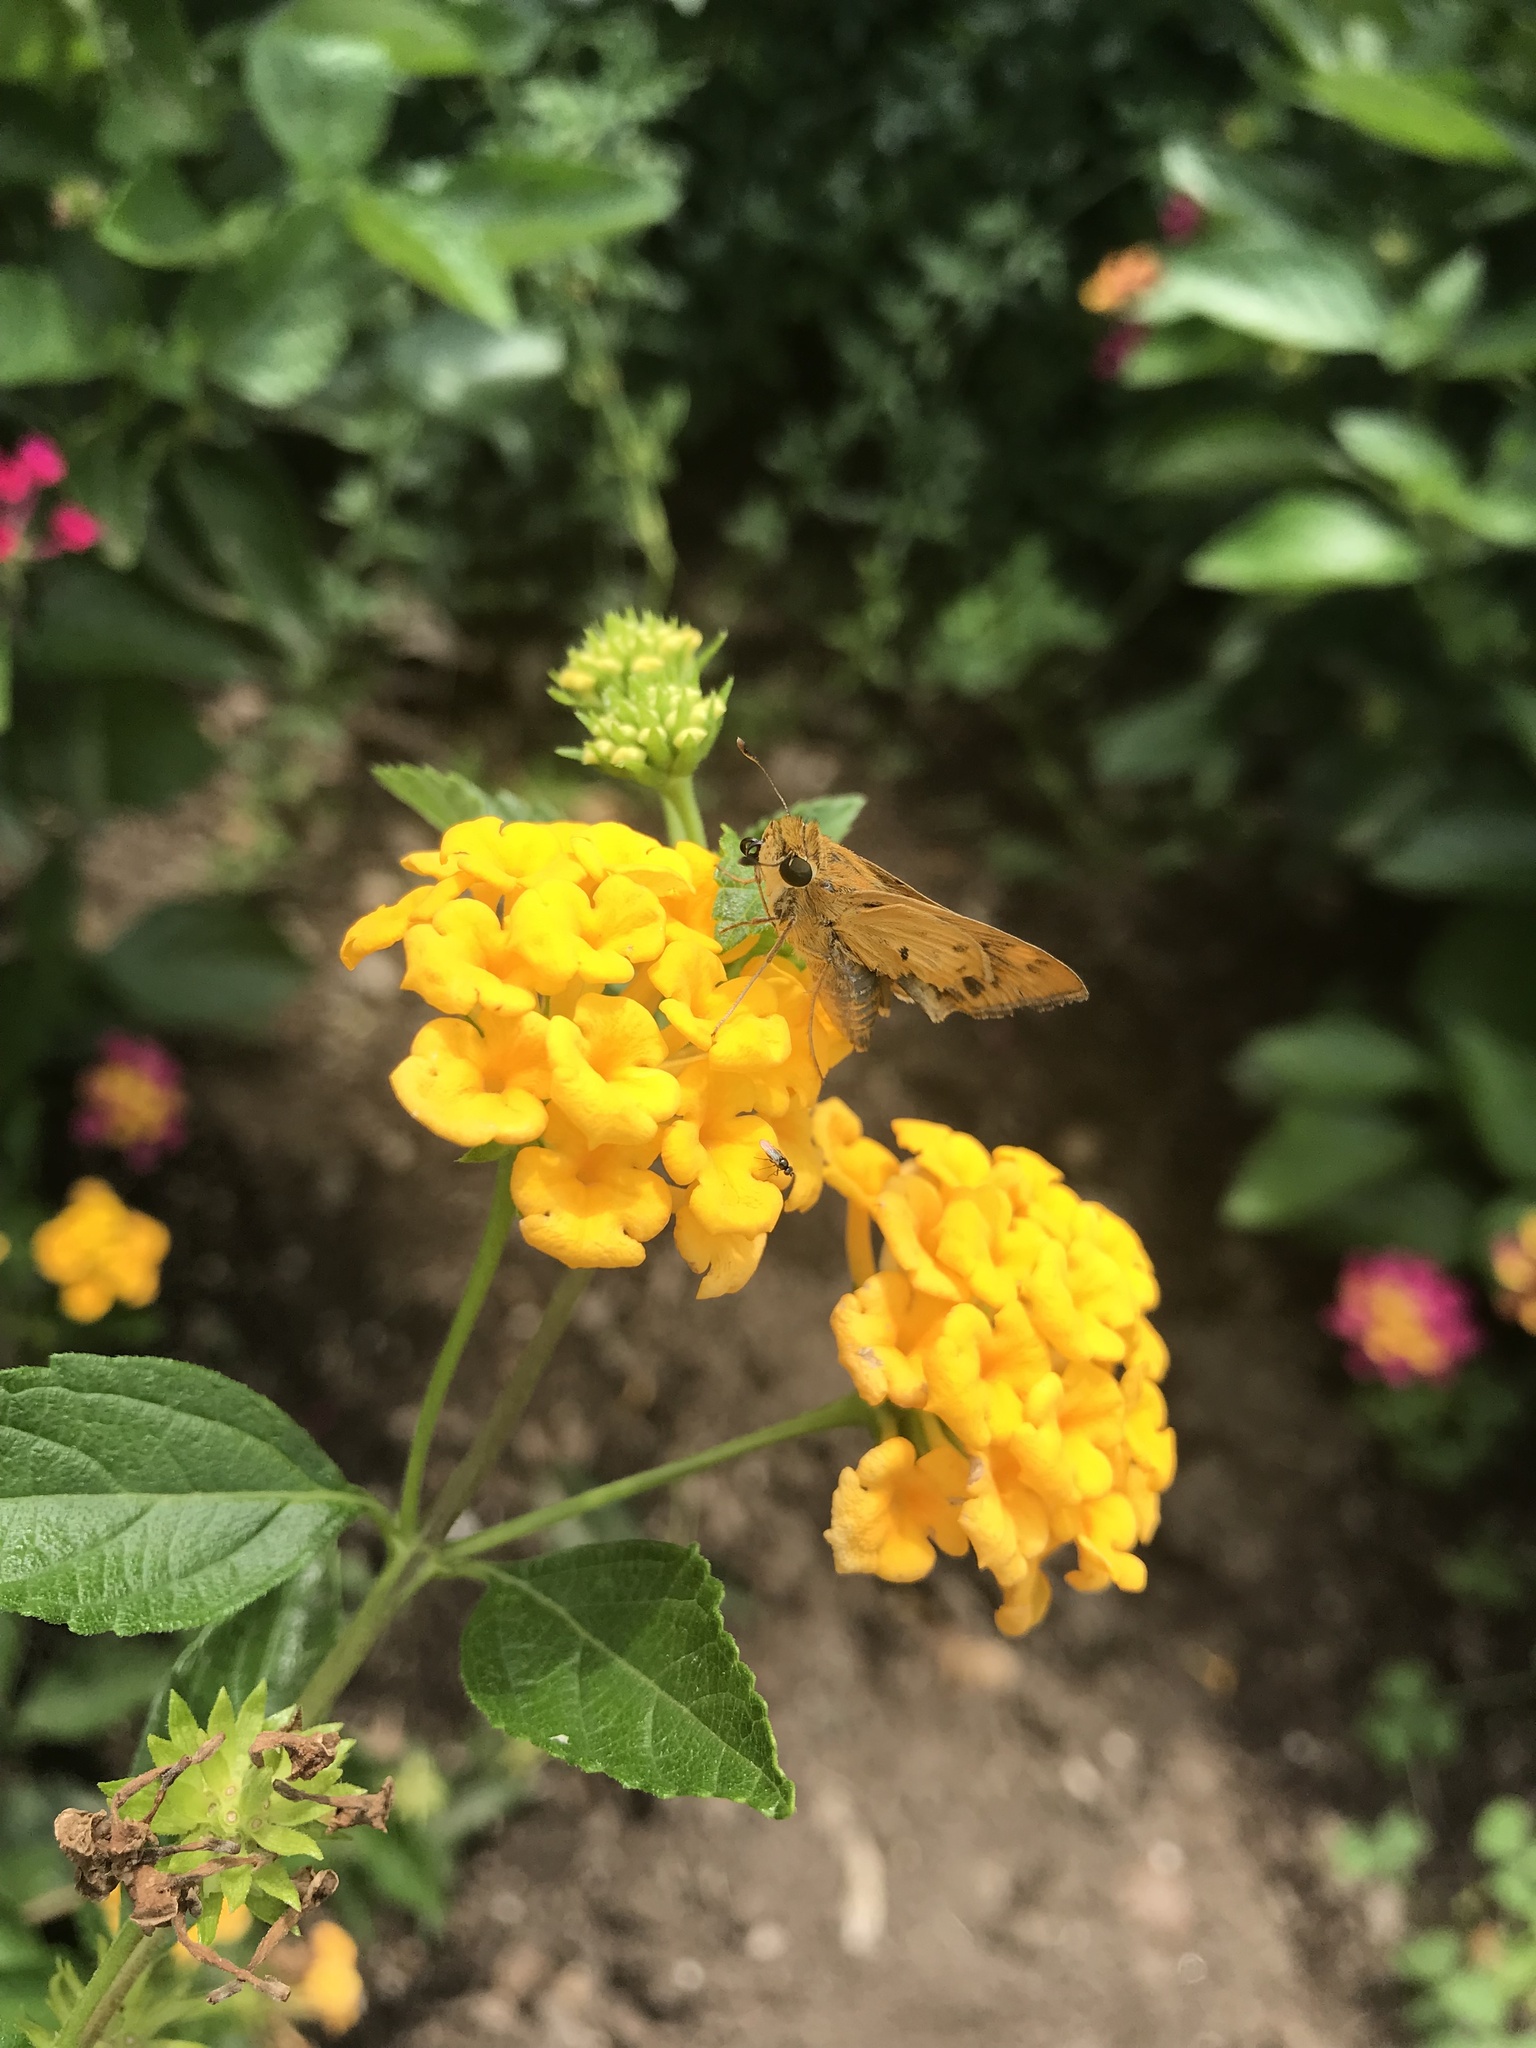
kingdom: Animalia
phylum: Arthropoda
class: Insecta
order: Lepidoptera
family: Hesperiidae
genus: Hylephila
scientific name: Hylephila phyleus
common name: Fiery skipper
